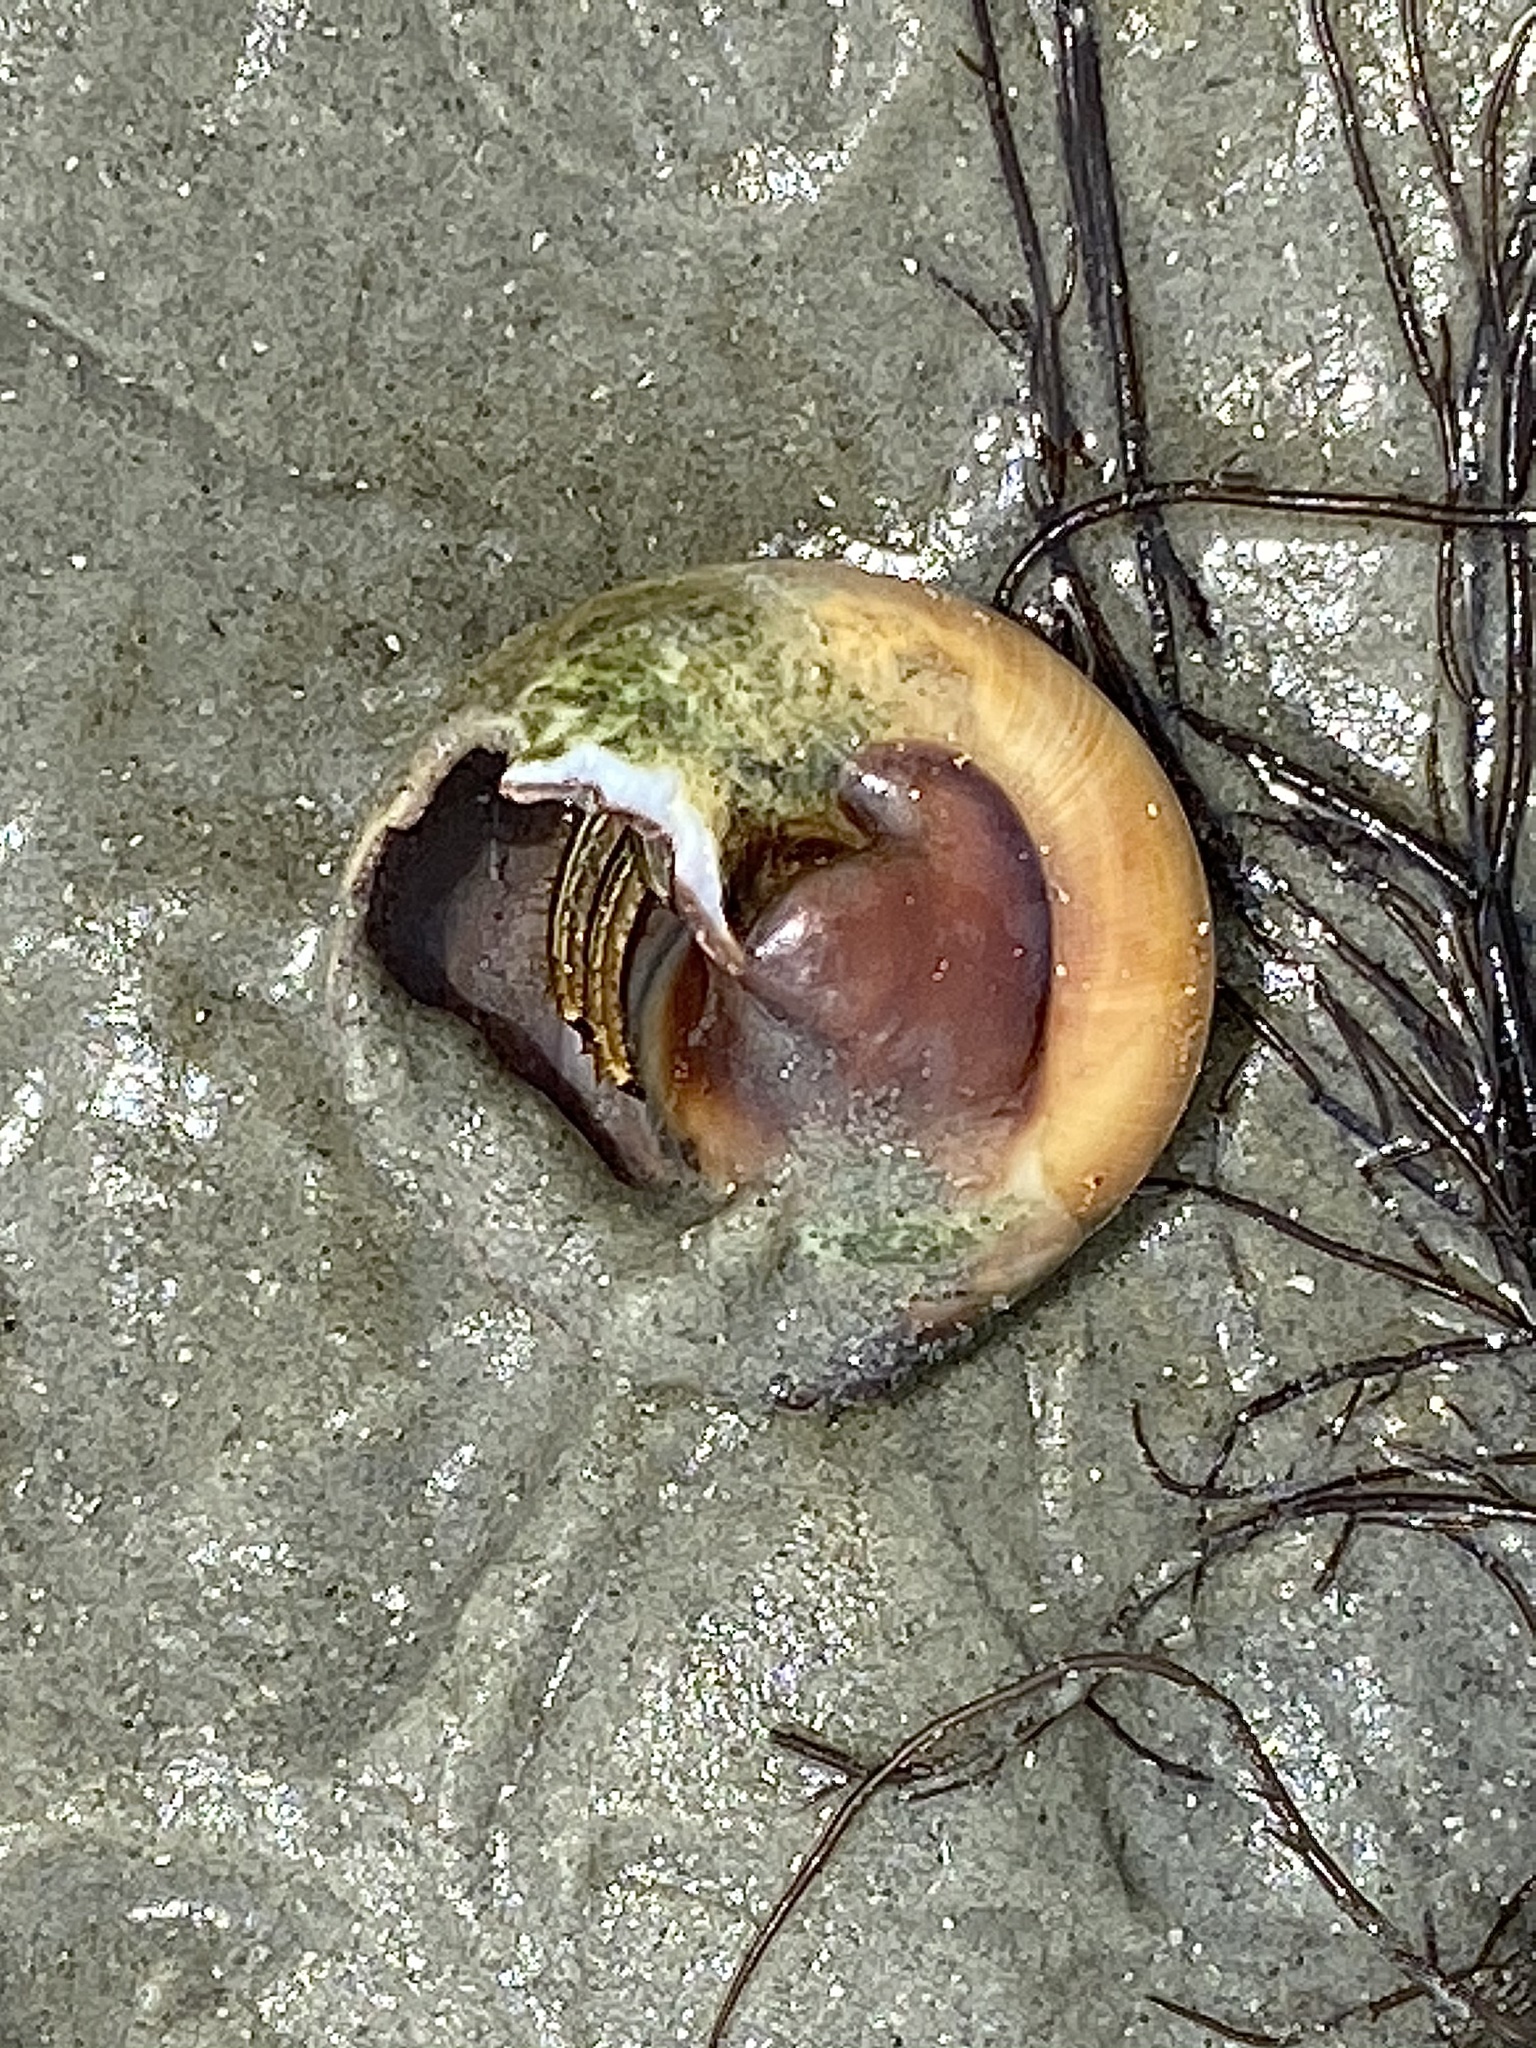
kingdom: Animalia
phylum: Arthropoda
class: Malacostraca
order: Decapoda
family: Diogenidae
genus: Clibanarius
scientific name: Clibanarius vittatus
